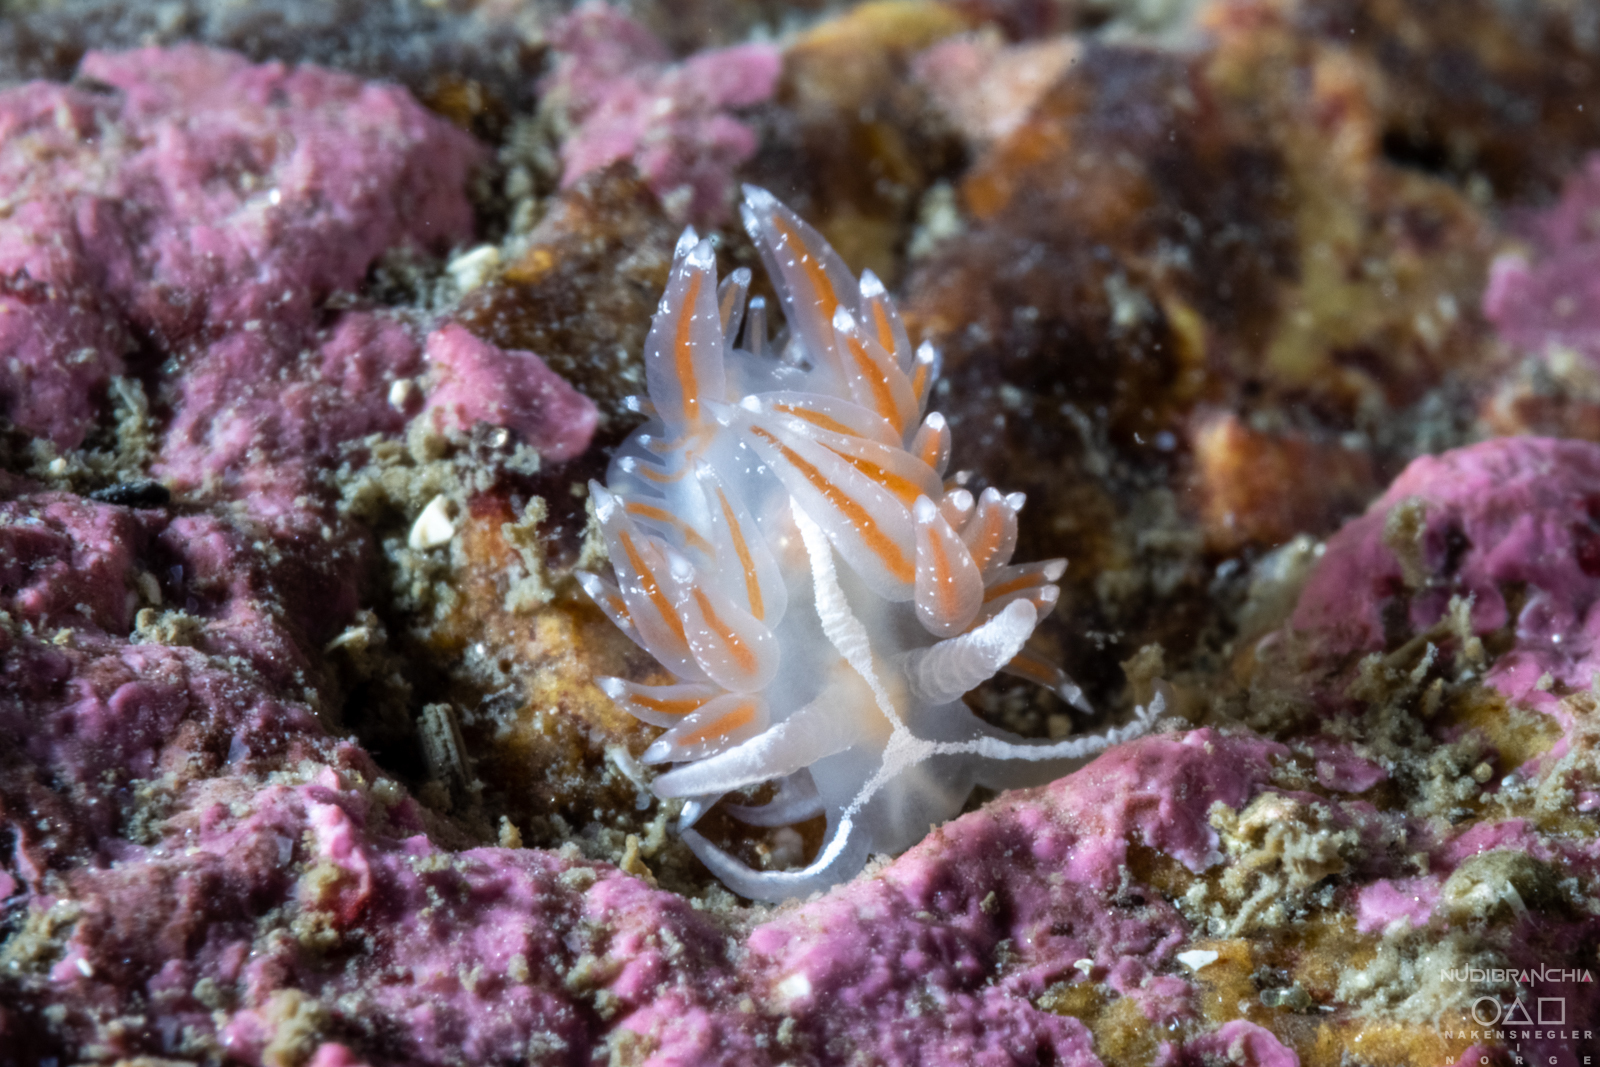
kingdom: Animalia
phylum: Mollusca
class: Gastropoda
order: Nudibranchia
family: Coryphellidae
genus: Coryphella
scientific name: Coryphella monicae
